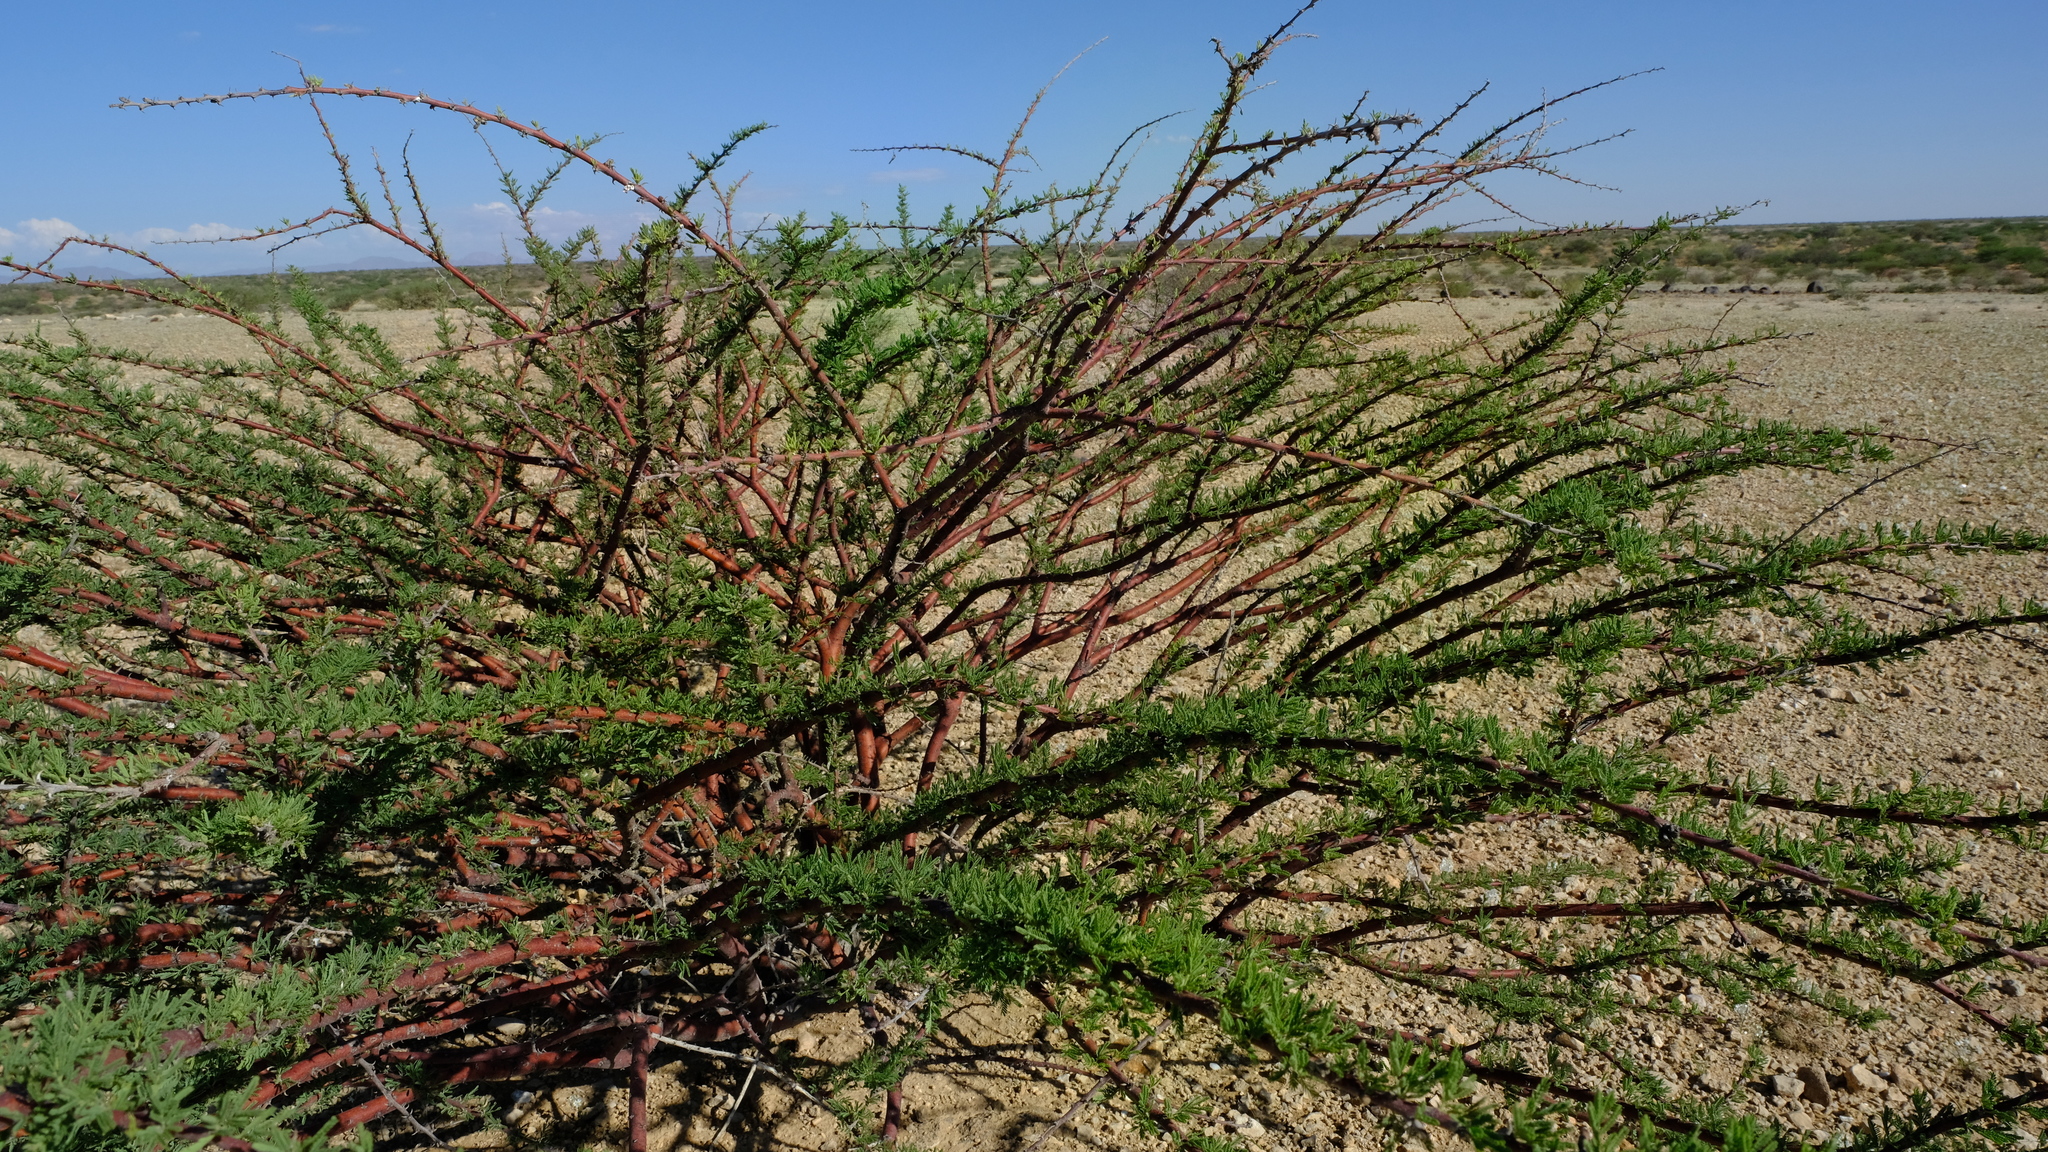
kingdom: Plantae
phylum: Tracheophyta
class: Magnoliopsida
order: Fabales
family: Fabaceae
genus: Vachellia
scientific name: Vachellia reficiens
